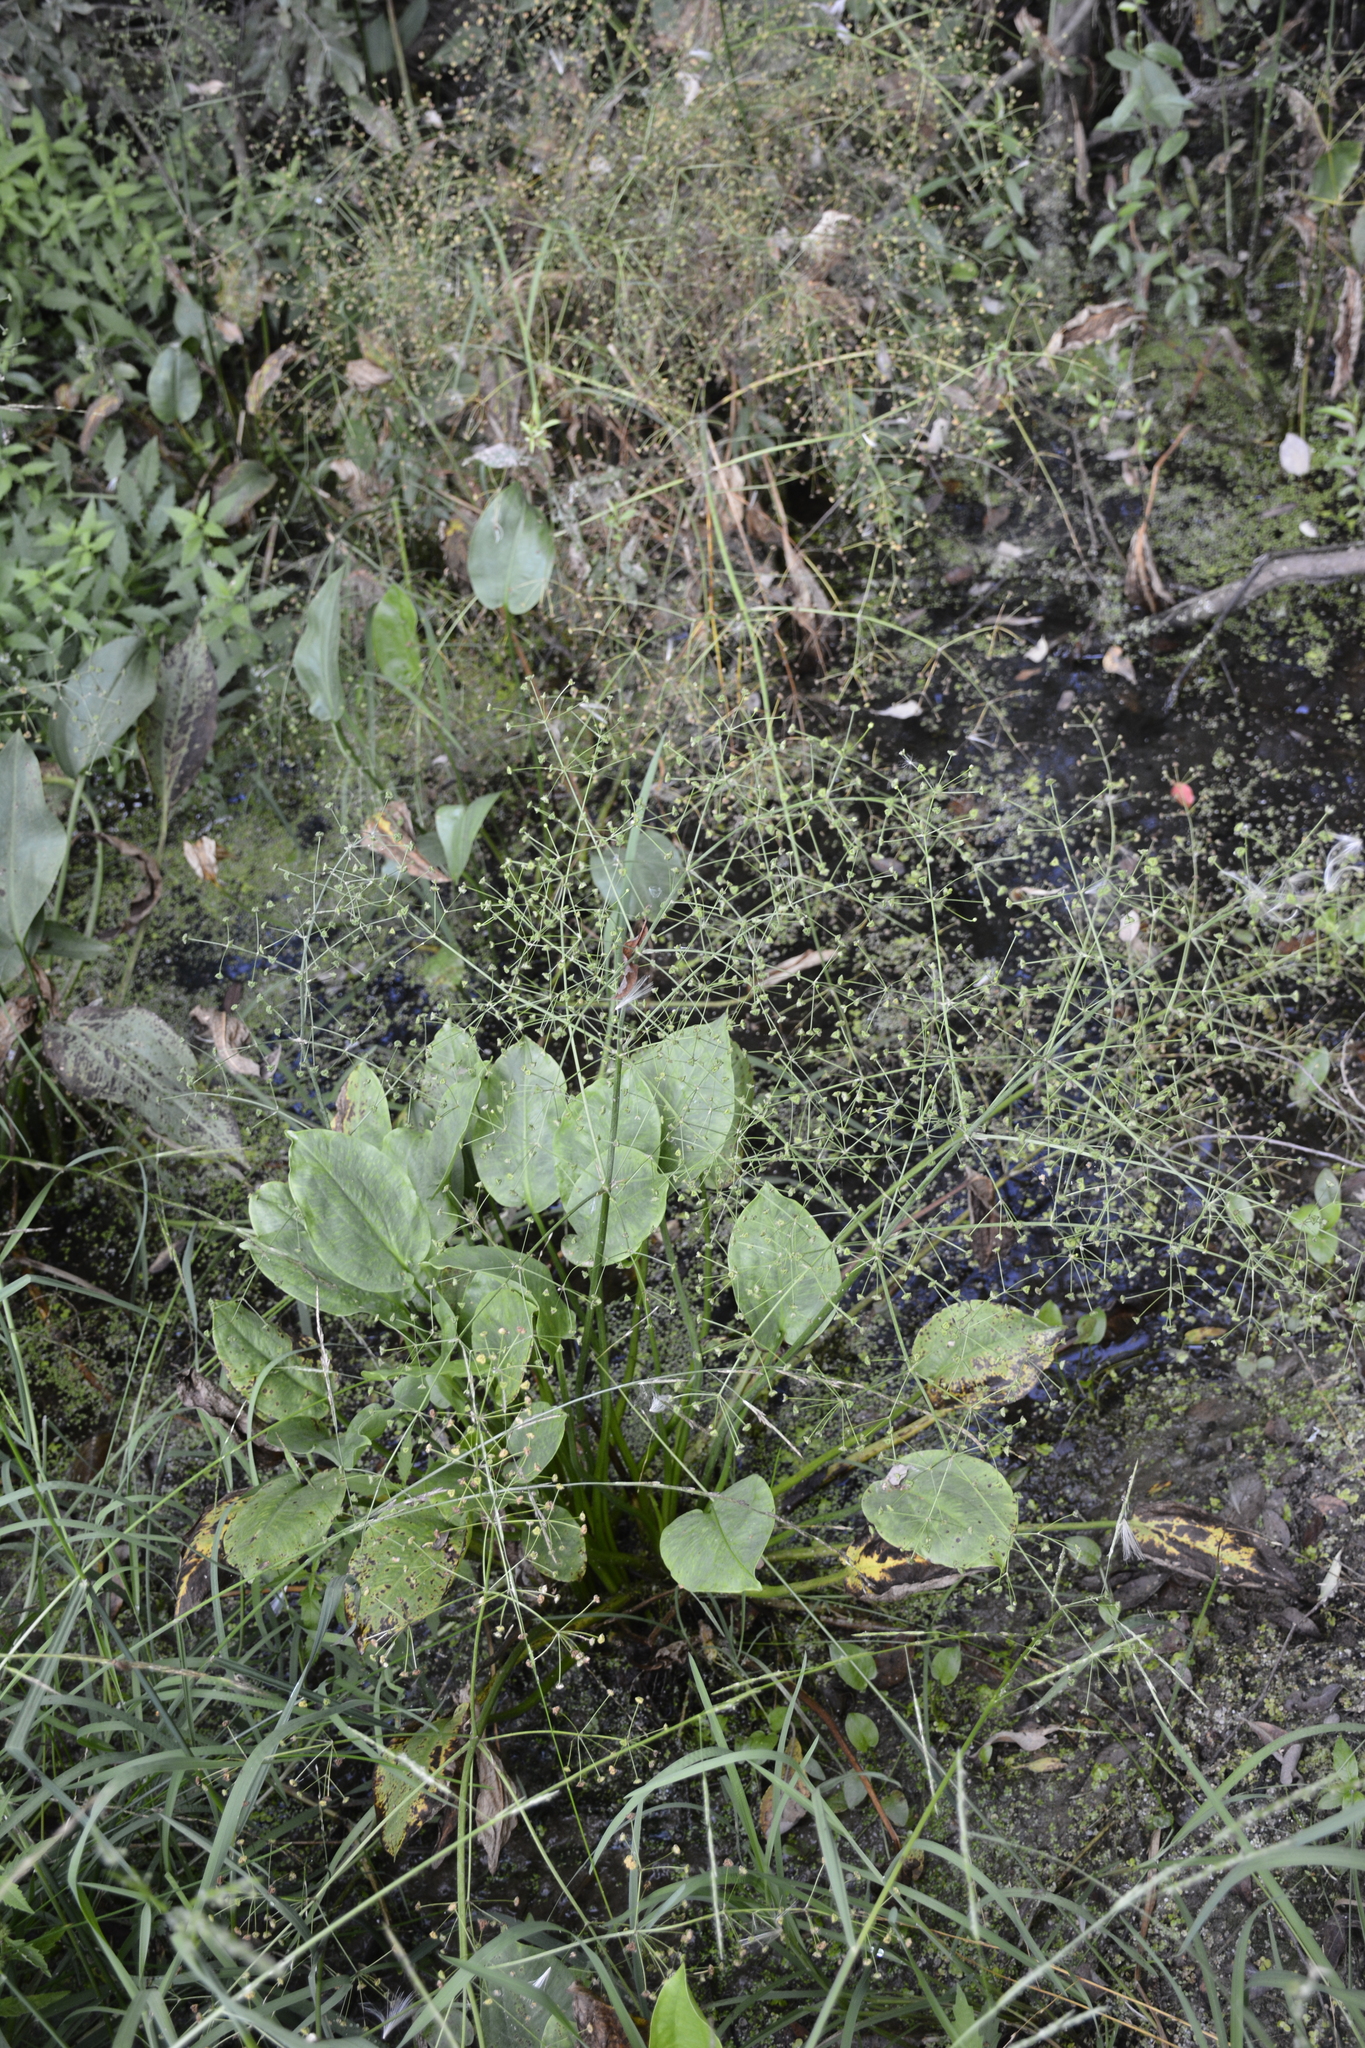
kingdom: Plantae
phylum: Tracheophyta
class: Liliopsida
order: Alismatales
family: Alismataceae
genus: Alisma
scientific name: Alisma plantago-aquatica
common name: Water-plantain
